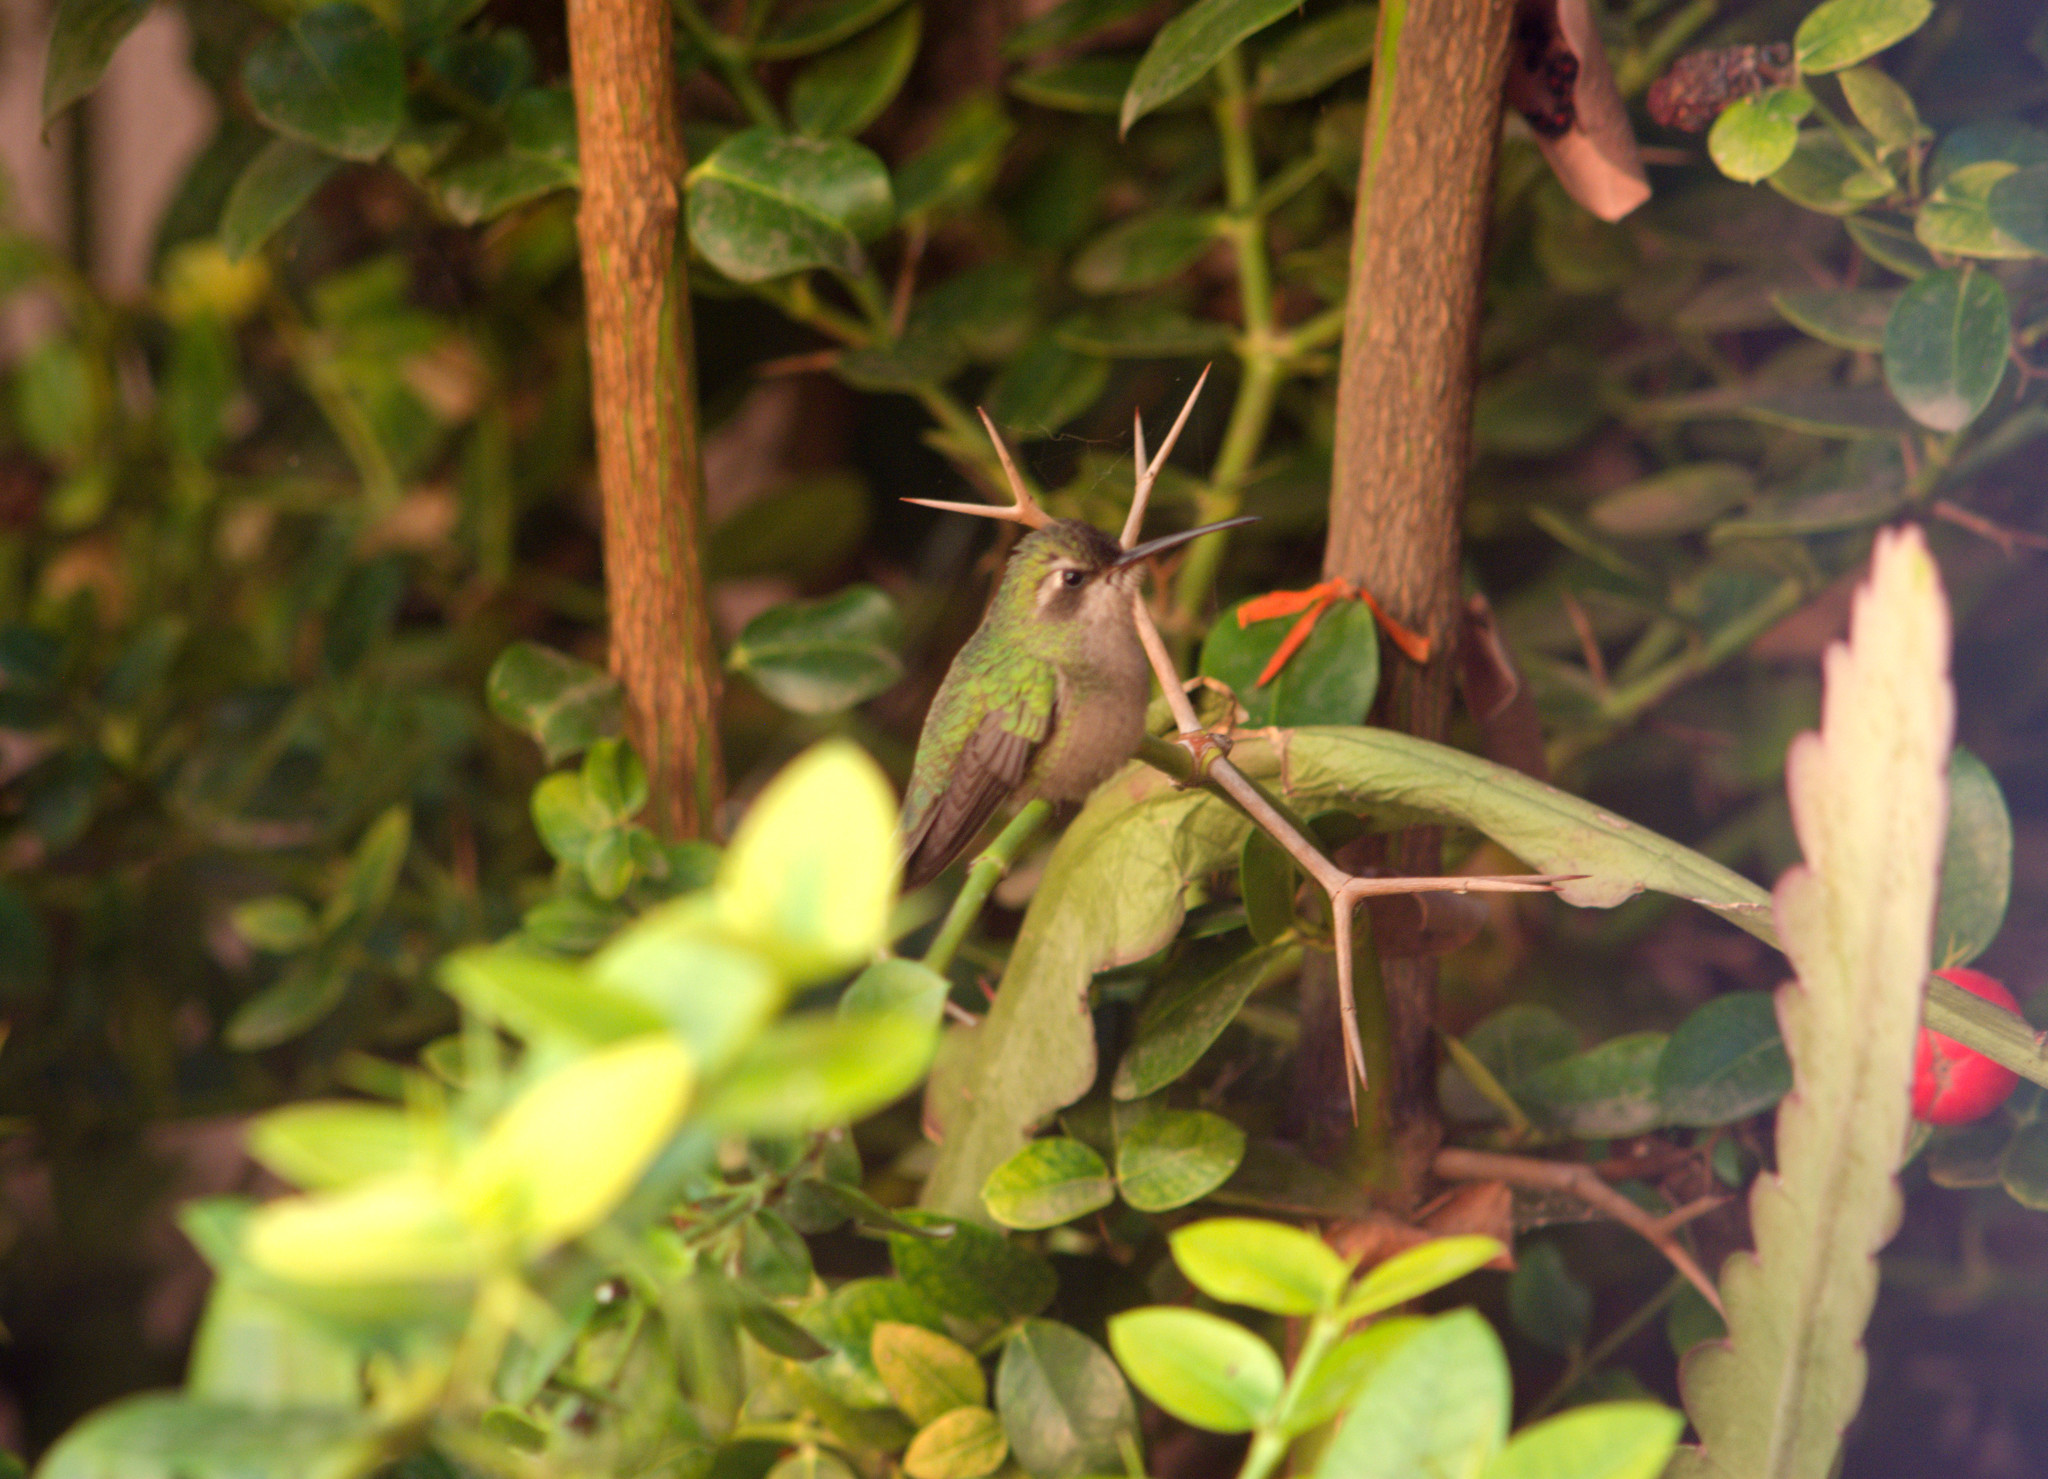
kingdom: Animalia
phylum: Chordata
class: Aves
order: Apodiformes
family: Trochilidae
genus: Cynanthus
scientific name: Cynanthus latirostris
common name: Broad-billed hummingbird
